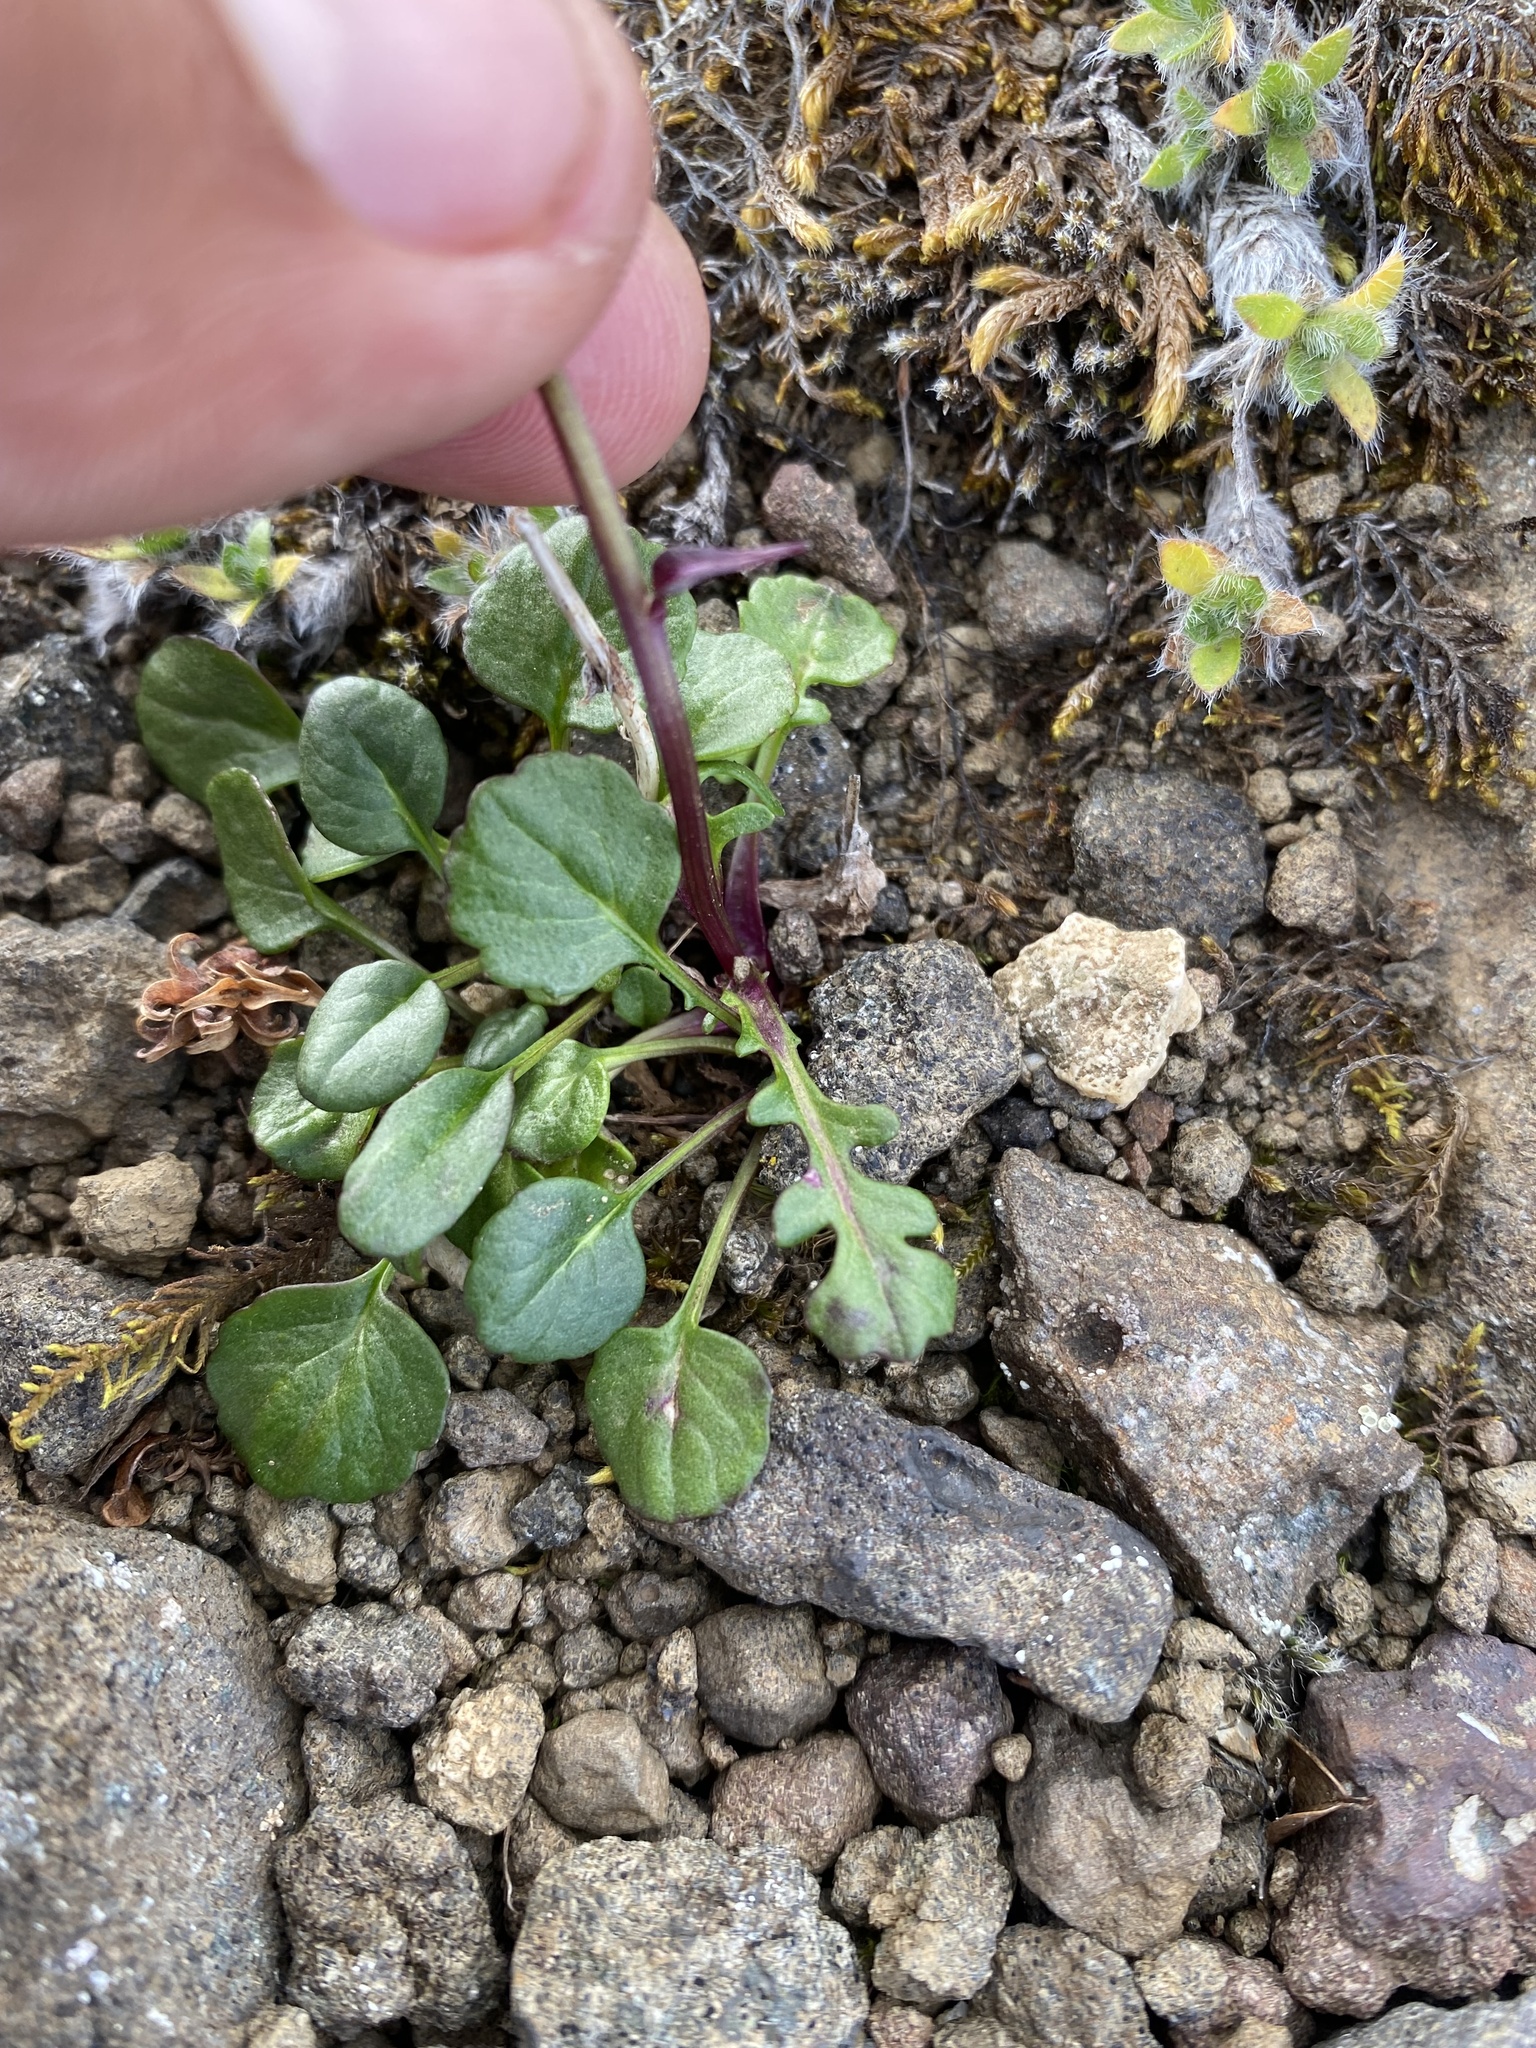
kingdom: Plantae
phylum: Tracheophyta
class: Magnoliopsida
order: Asterales
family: Asteraceae
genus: Packera
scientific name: Packera heterophylla
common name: Arctic butterweed
